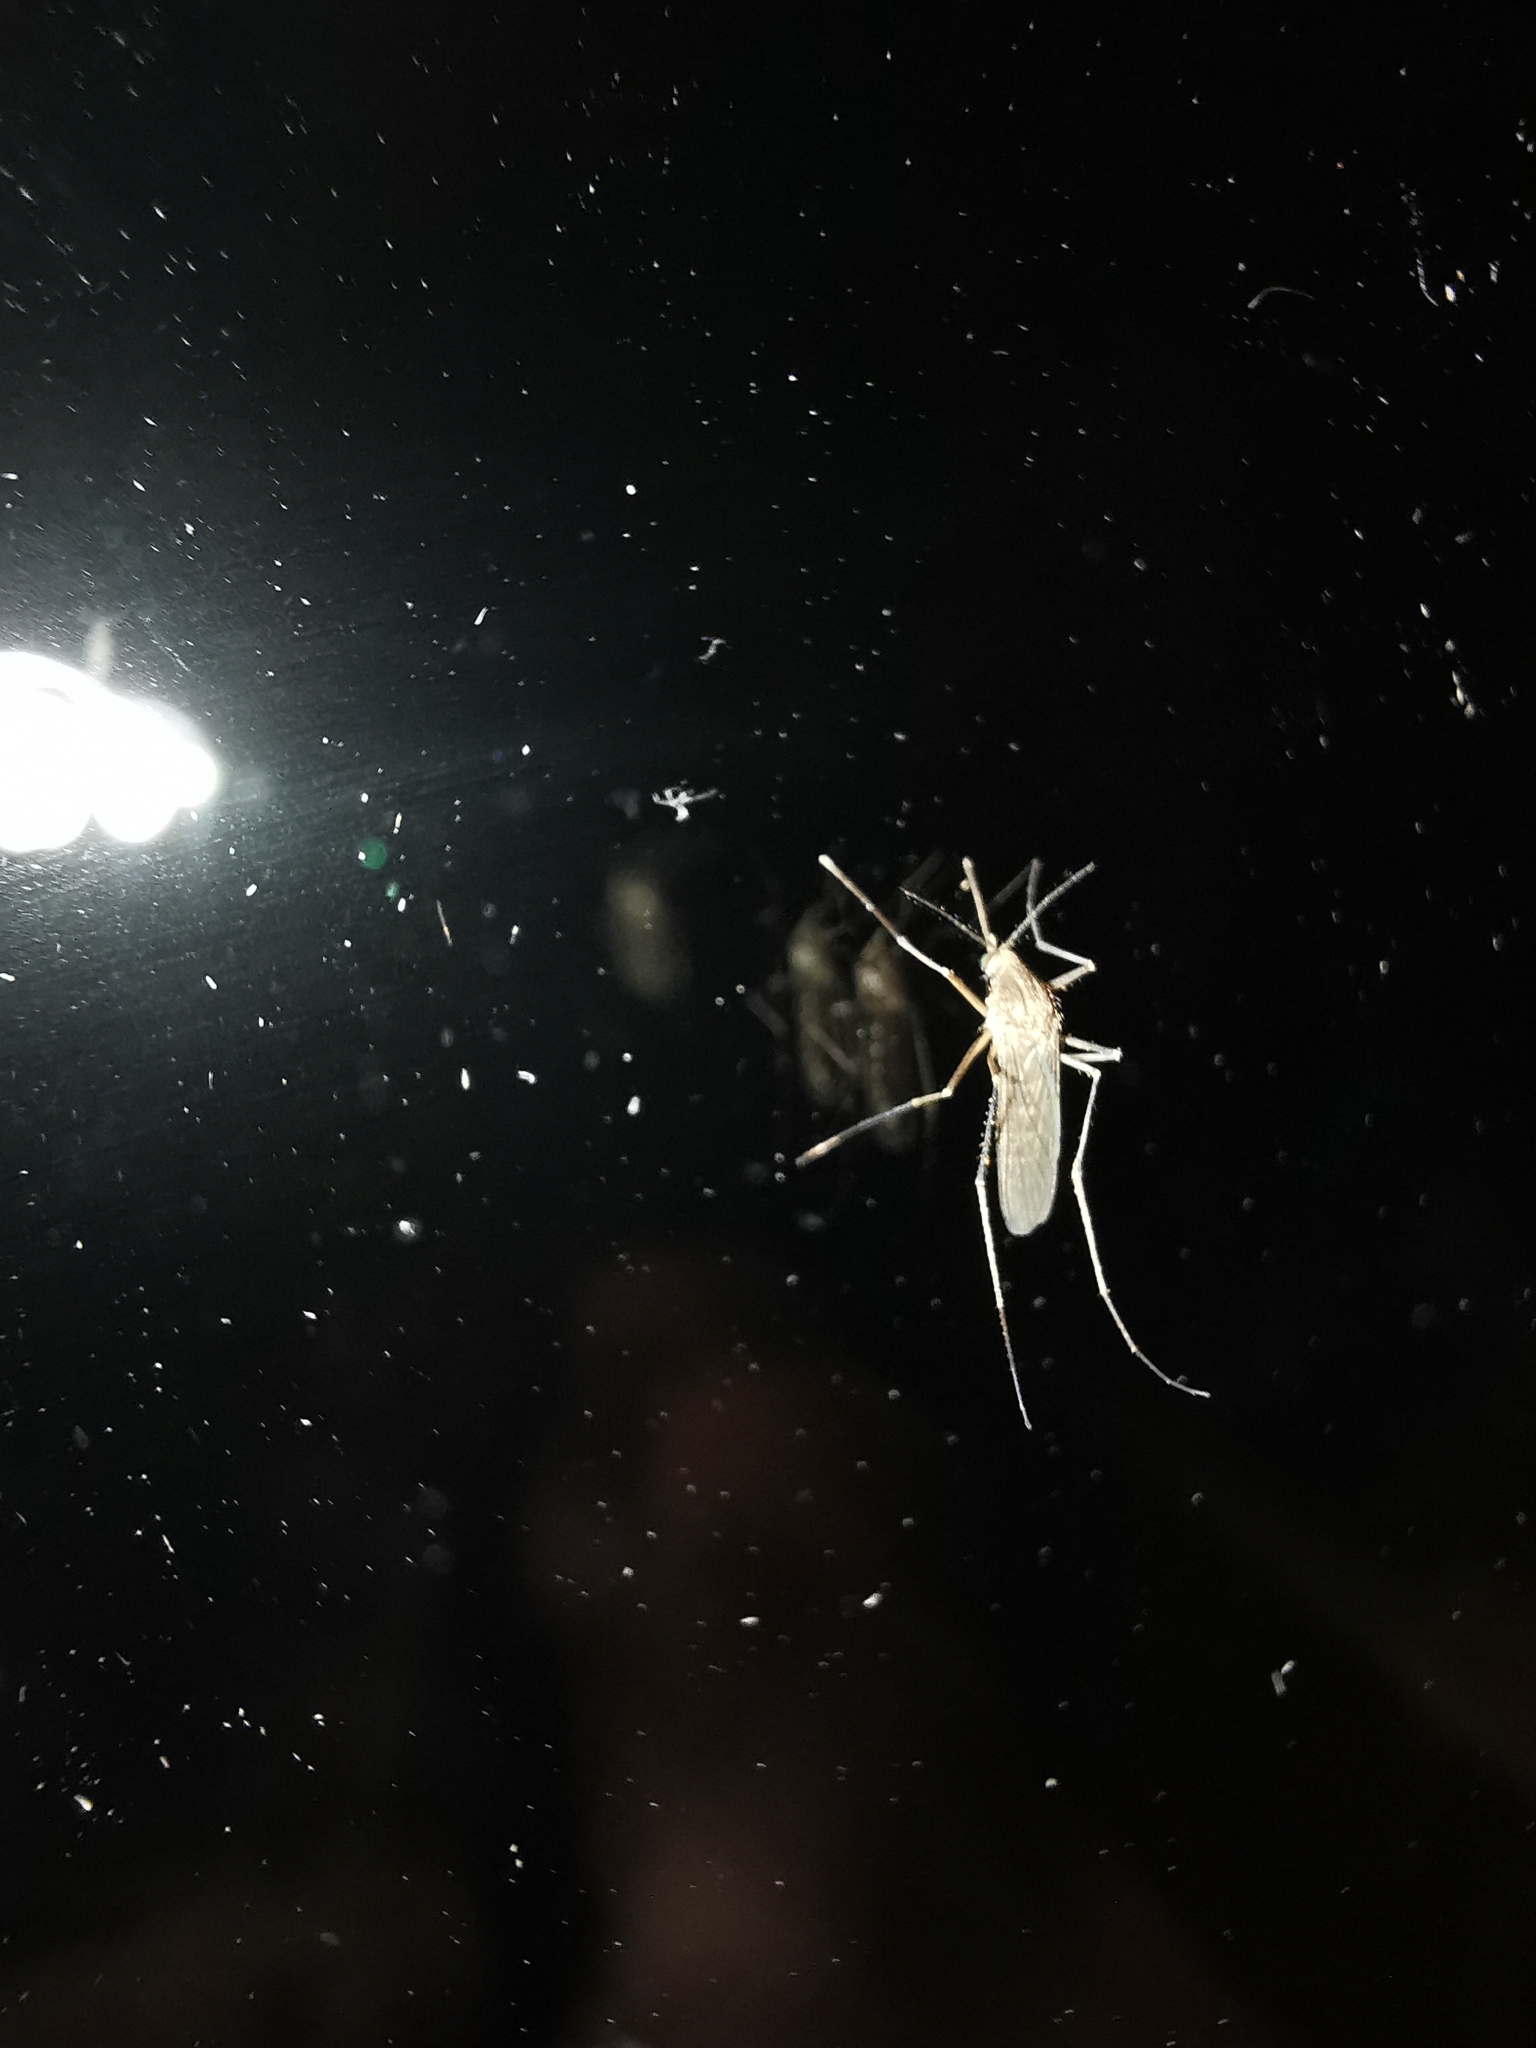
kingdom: Animalia
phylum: Arthropoda
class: Insecta
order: Diptera
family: Culicidae
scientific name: Culicidae
